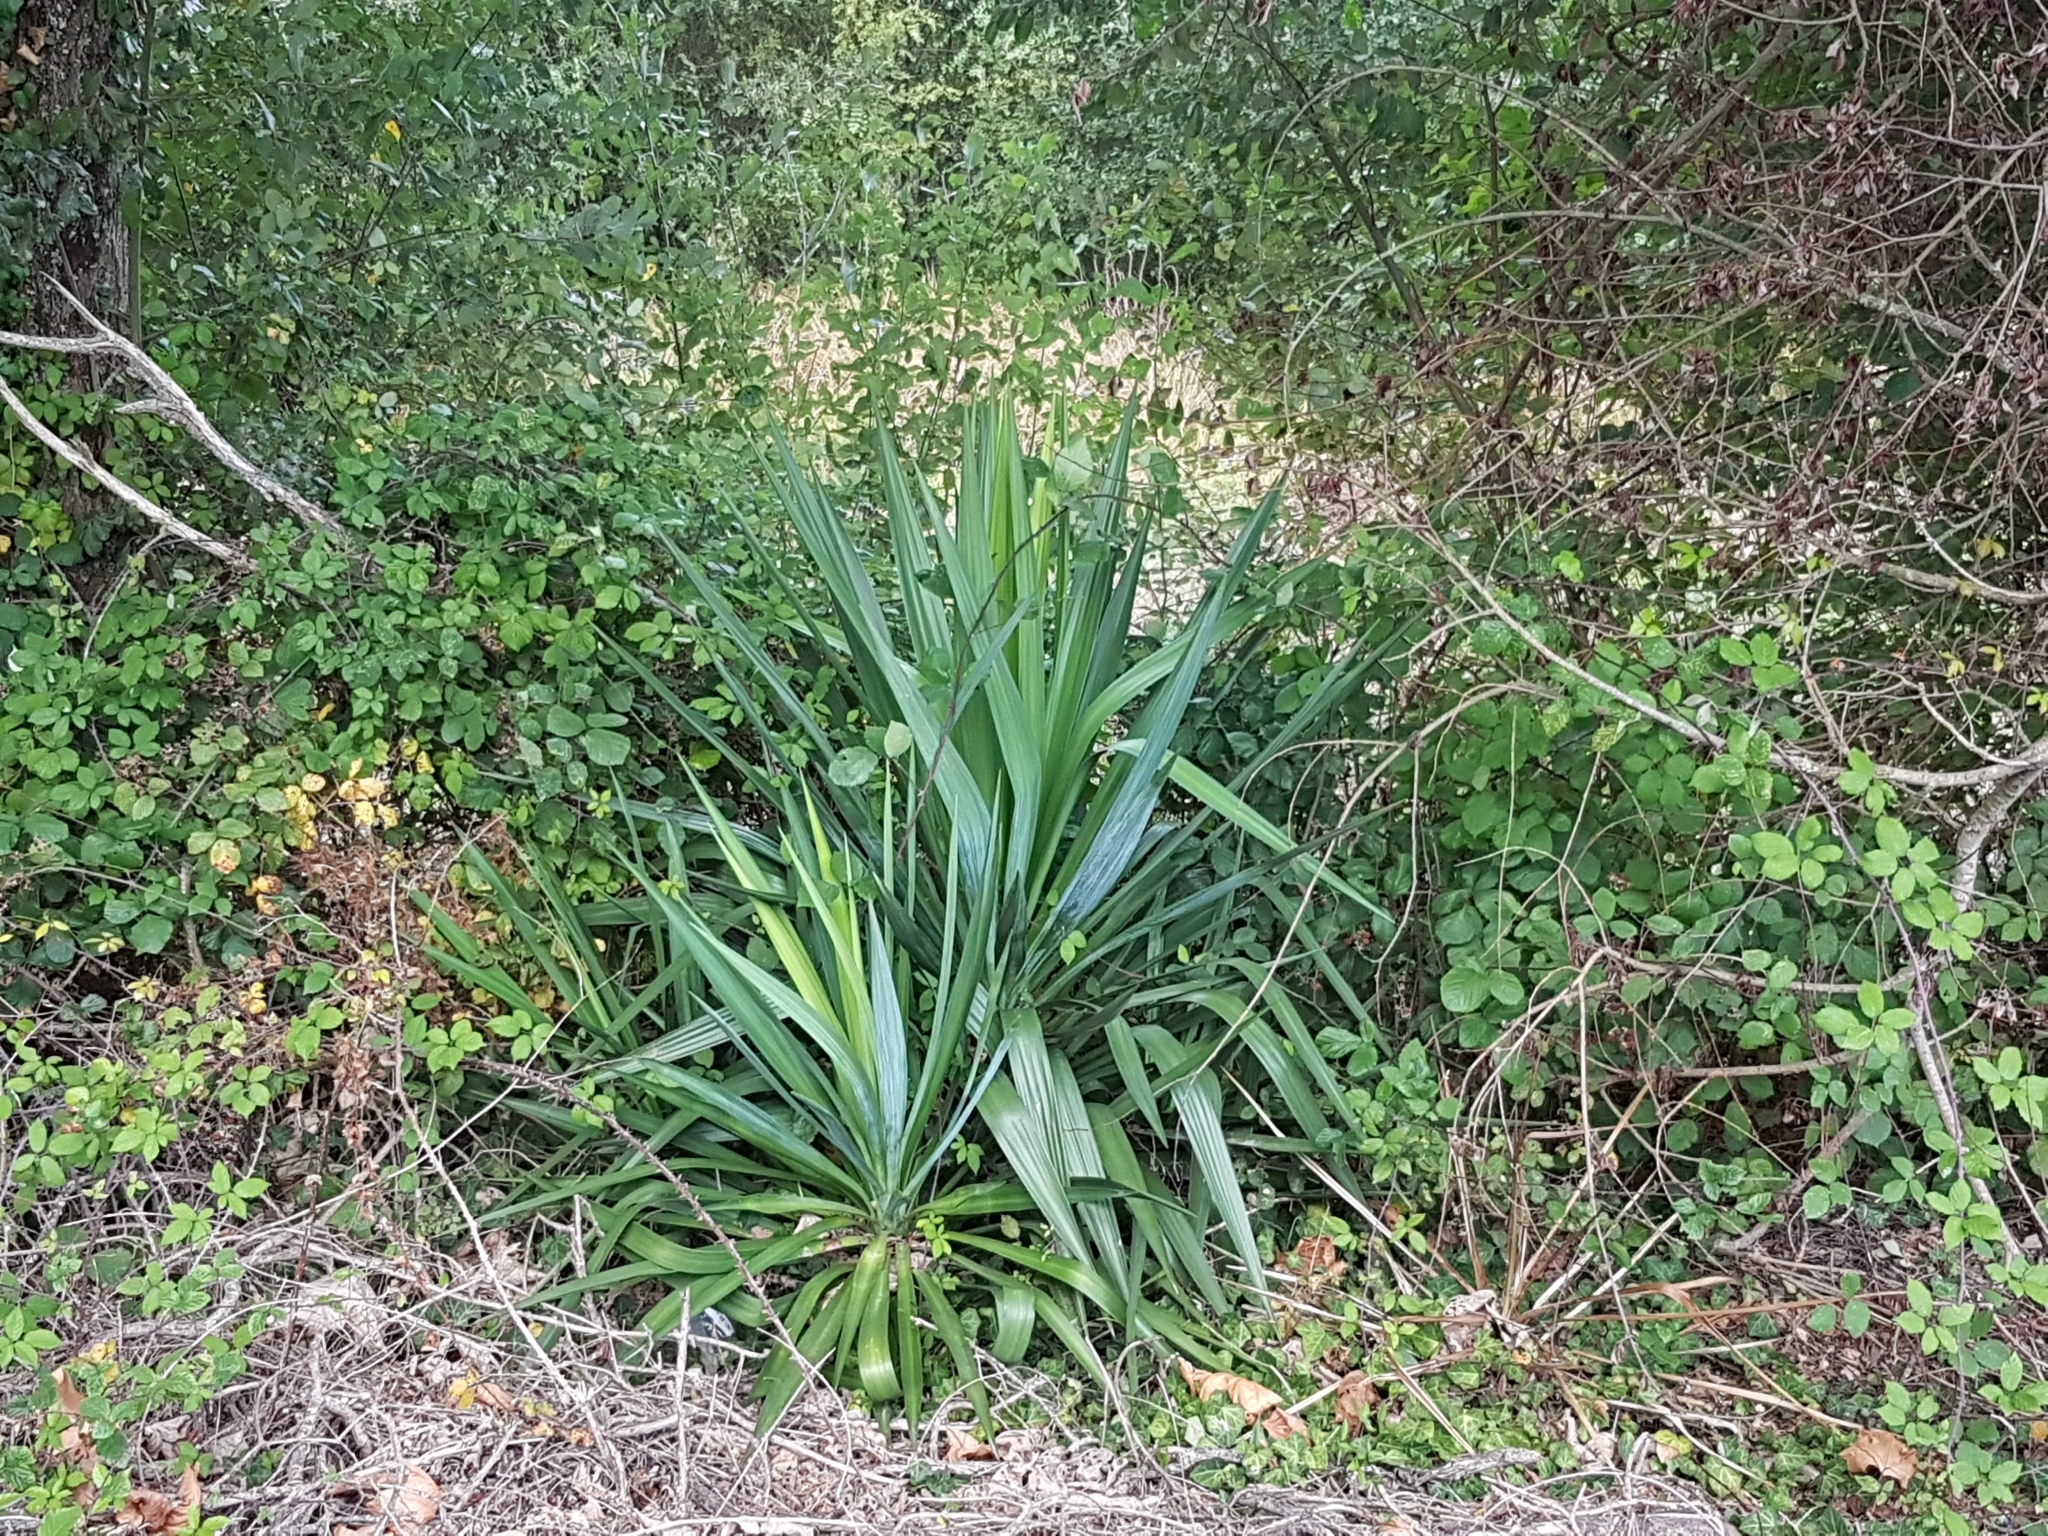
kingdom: Plantae
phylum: Tracheophyta
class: Liliopsida
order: Asparagales
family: Asparagaceae
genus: Yucca
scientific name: Yucca gloriosa
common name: Spanish-dagger
